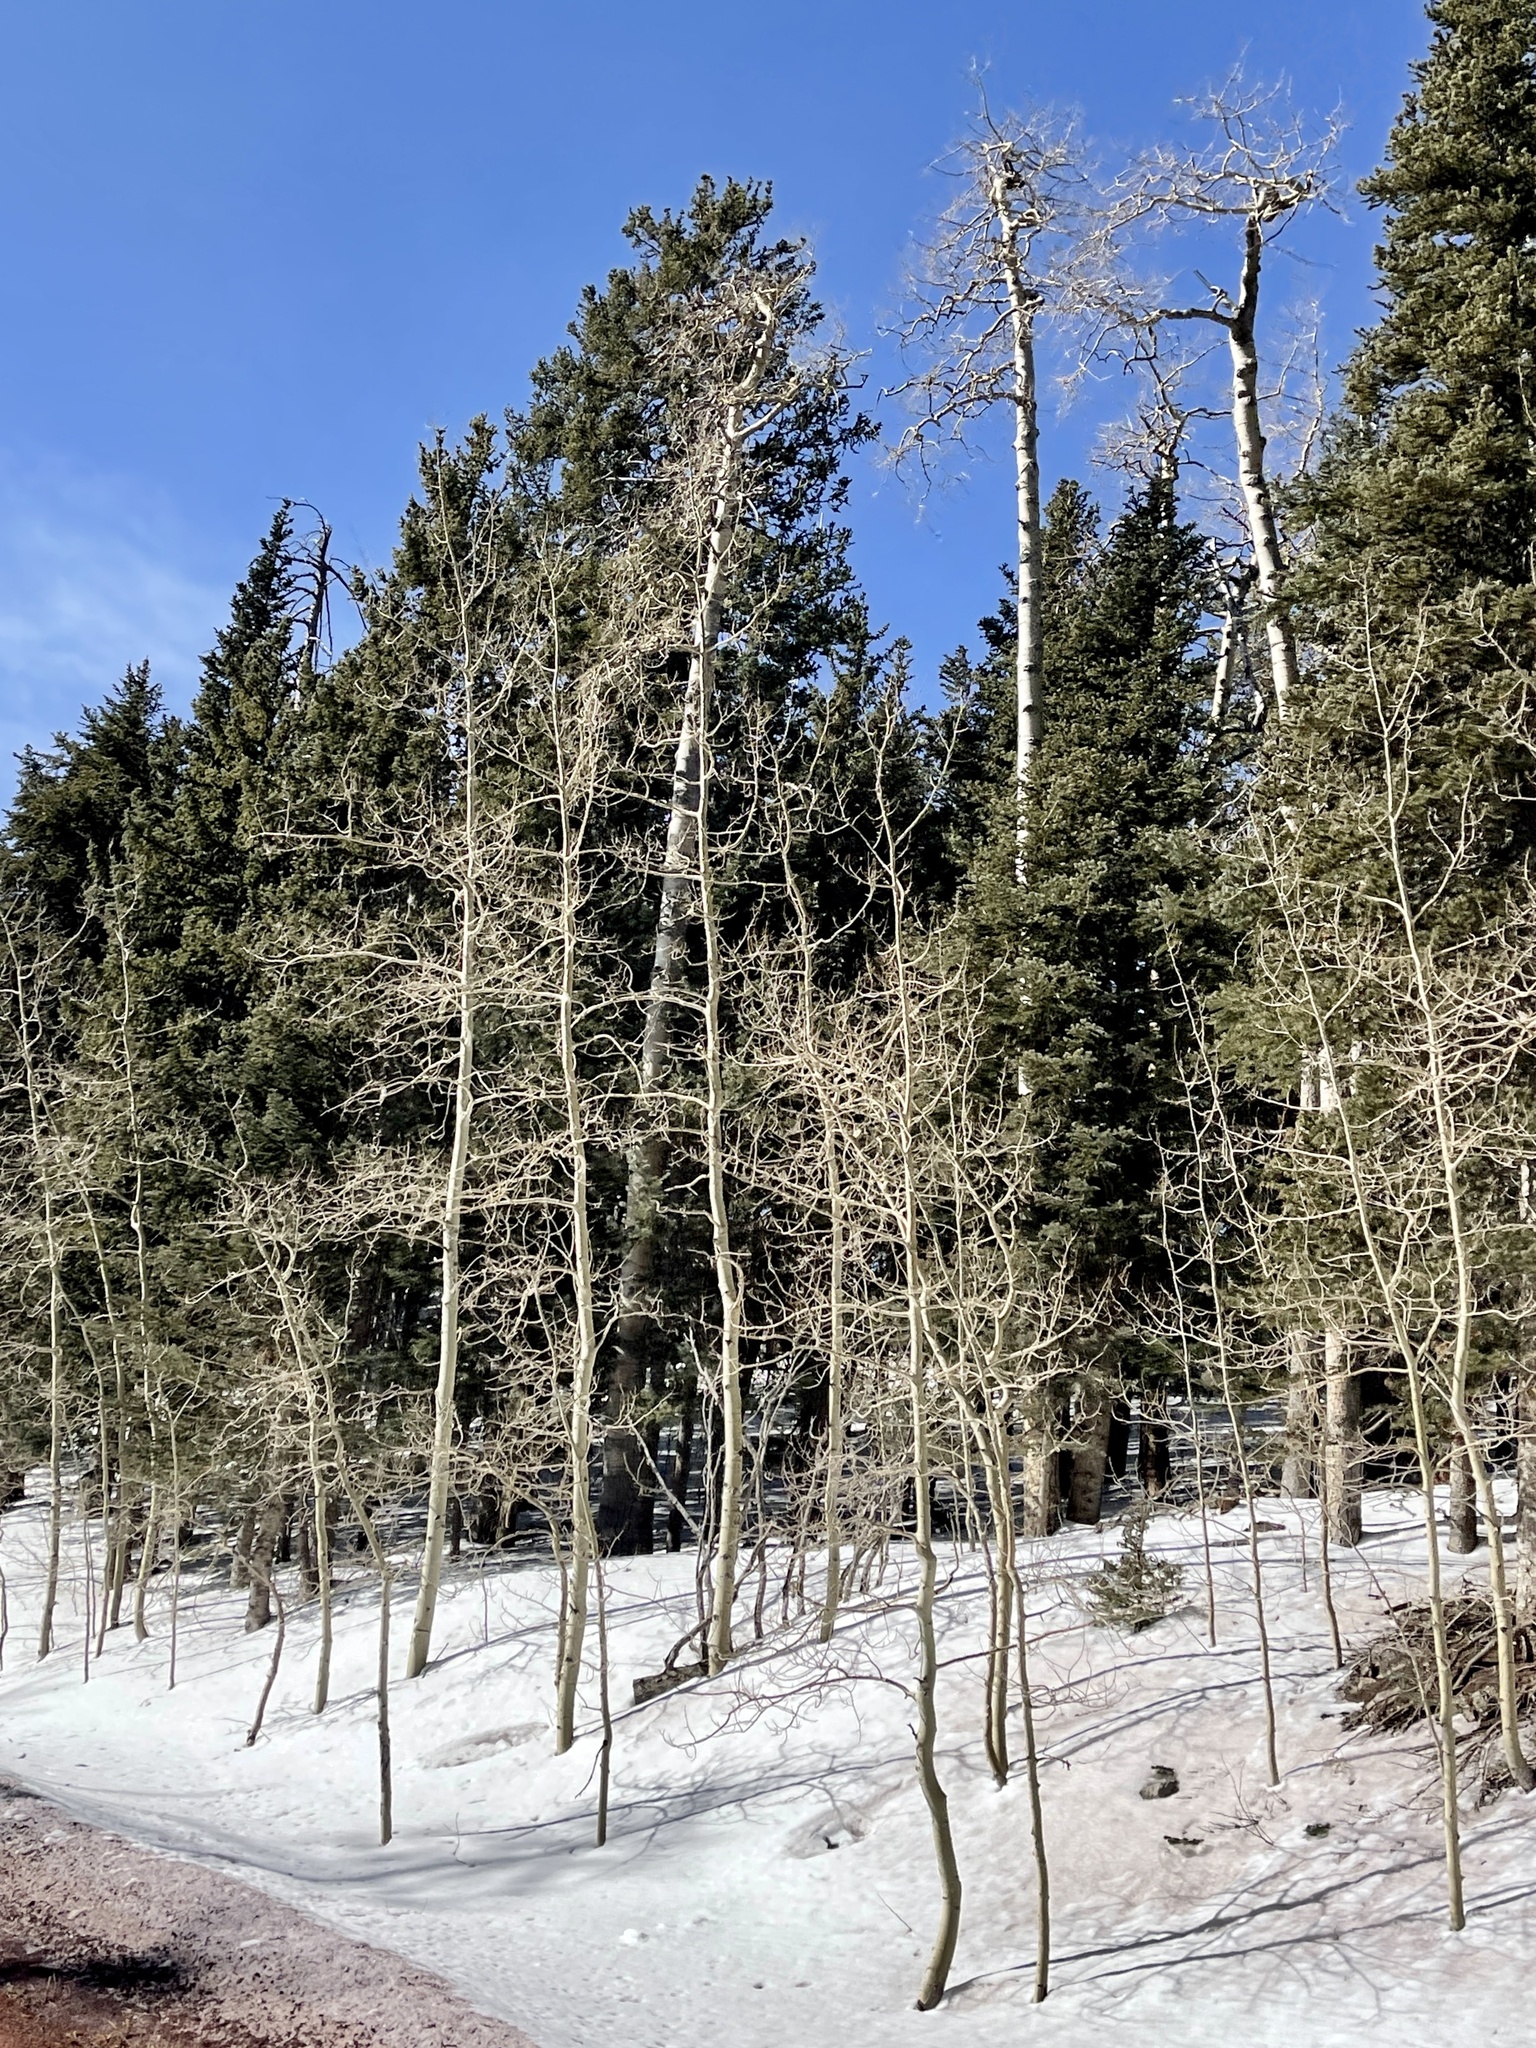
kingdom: Plantae
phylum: Tracheophyta
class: Magnoliopsida
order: Malpighiales
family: Salicaceae
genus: Populus
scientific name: Populus tremuloides
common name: Quaking aspen
